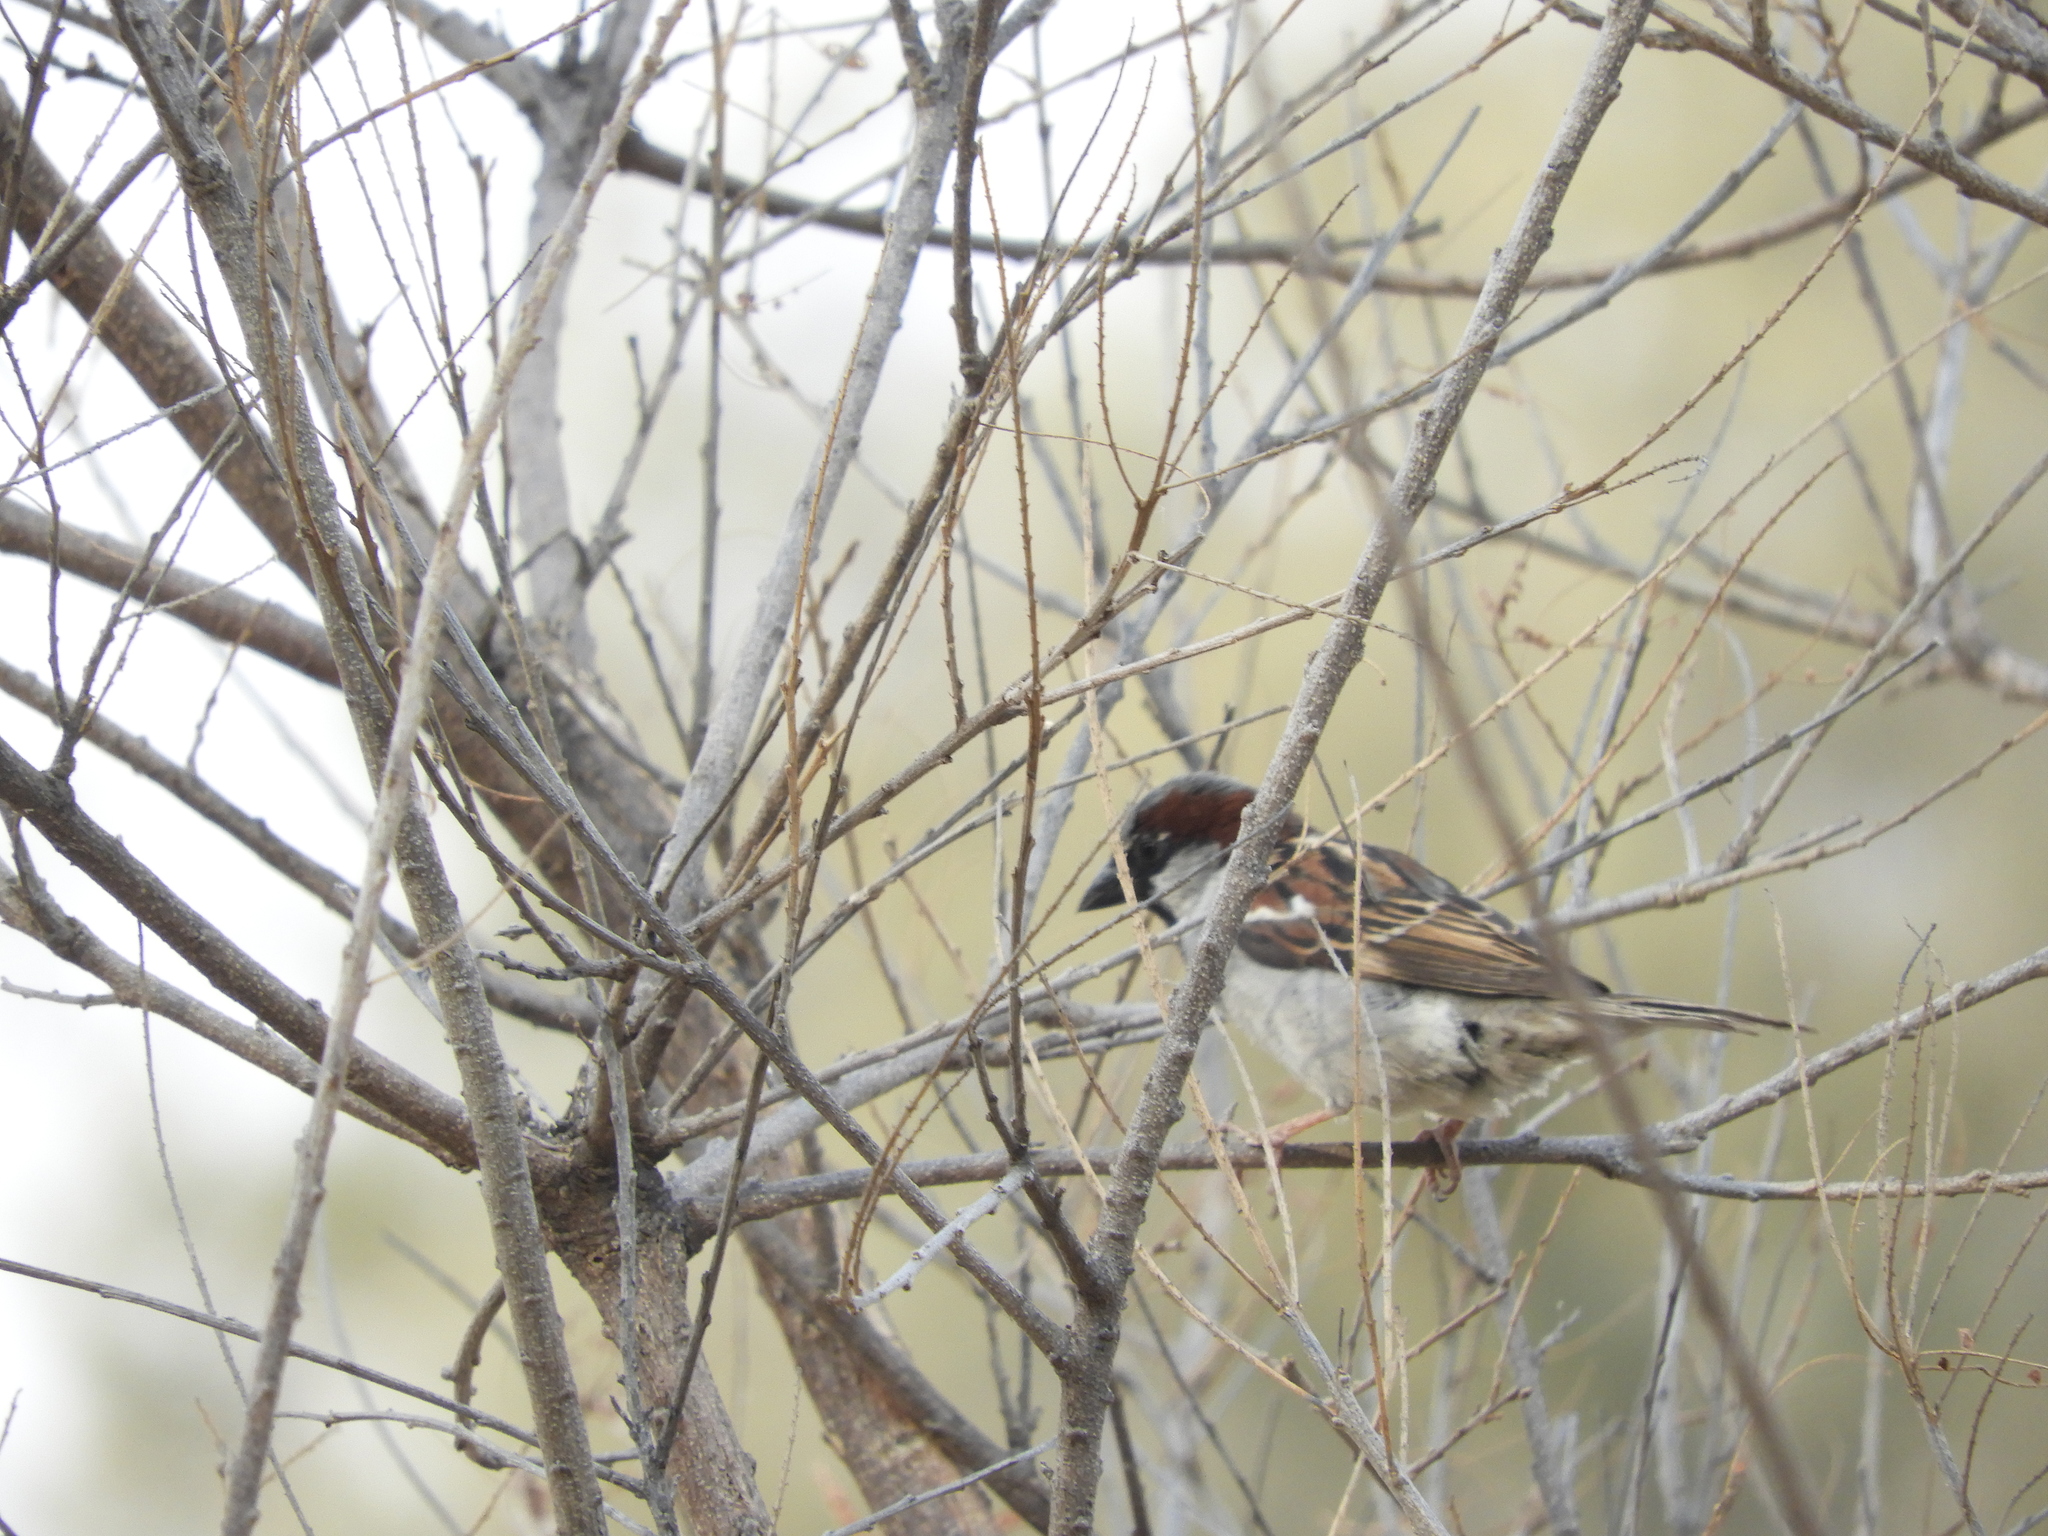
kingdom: Animalia
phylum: Chordata
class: Aves
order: Passeriformes
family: Passeridae
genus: Passer
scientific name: Passer domesticus
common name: House sparrow
